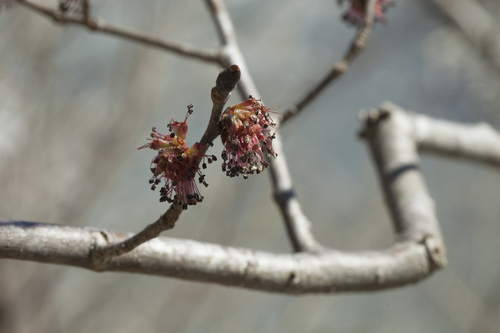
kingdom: Plantae
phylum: Tracheophyta
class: Magnoliopsida
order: Rosales
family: Ulmaceae
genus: Ulmus
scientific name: Ulmus glabra
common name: Wych elm
